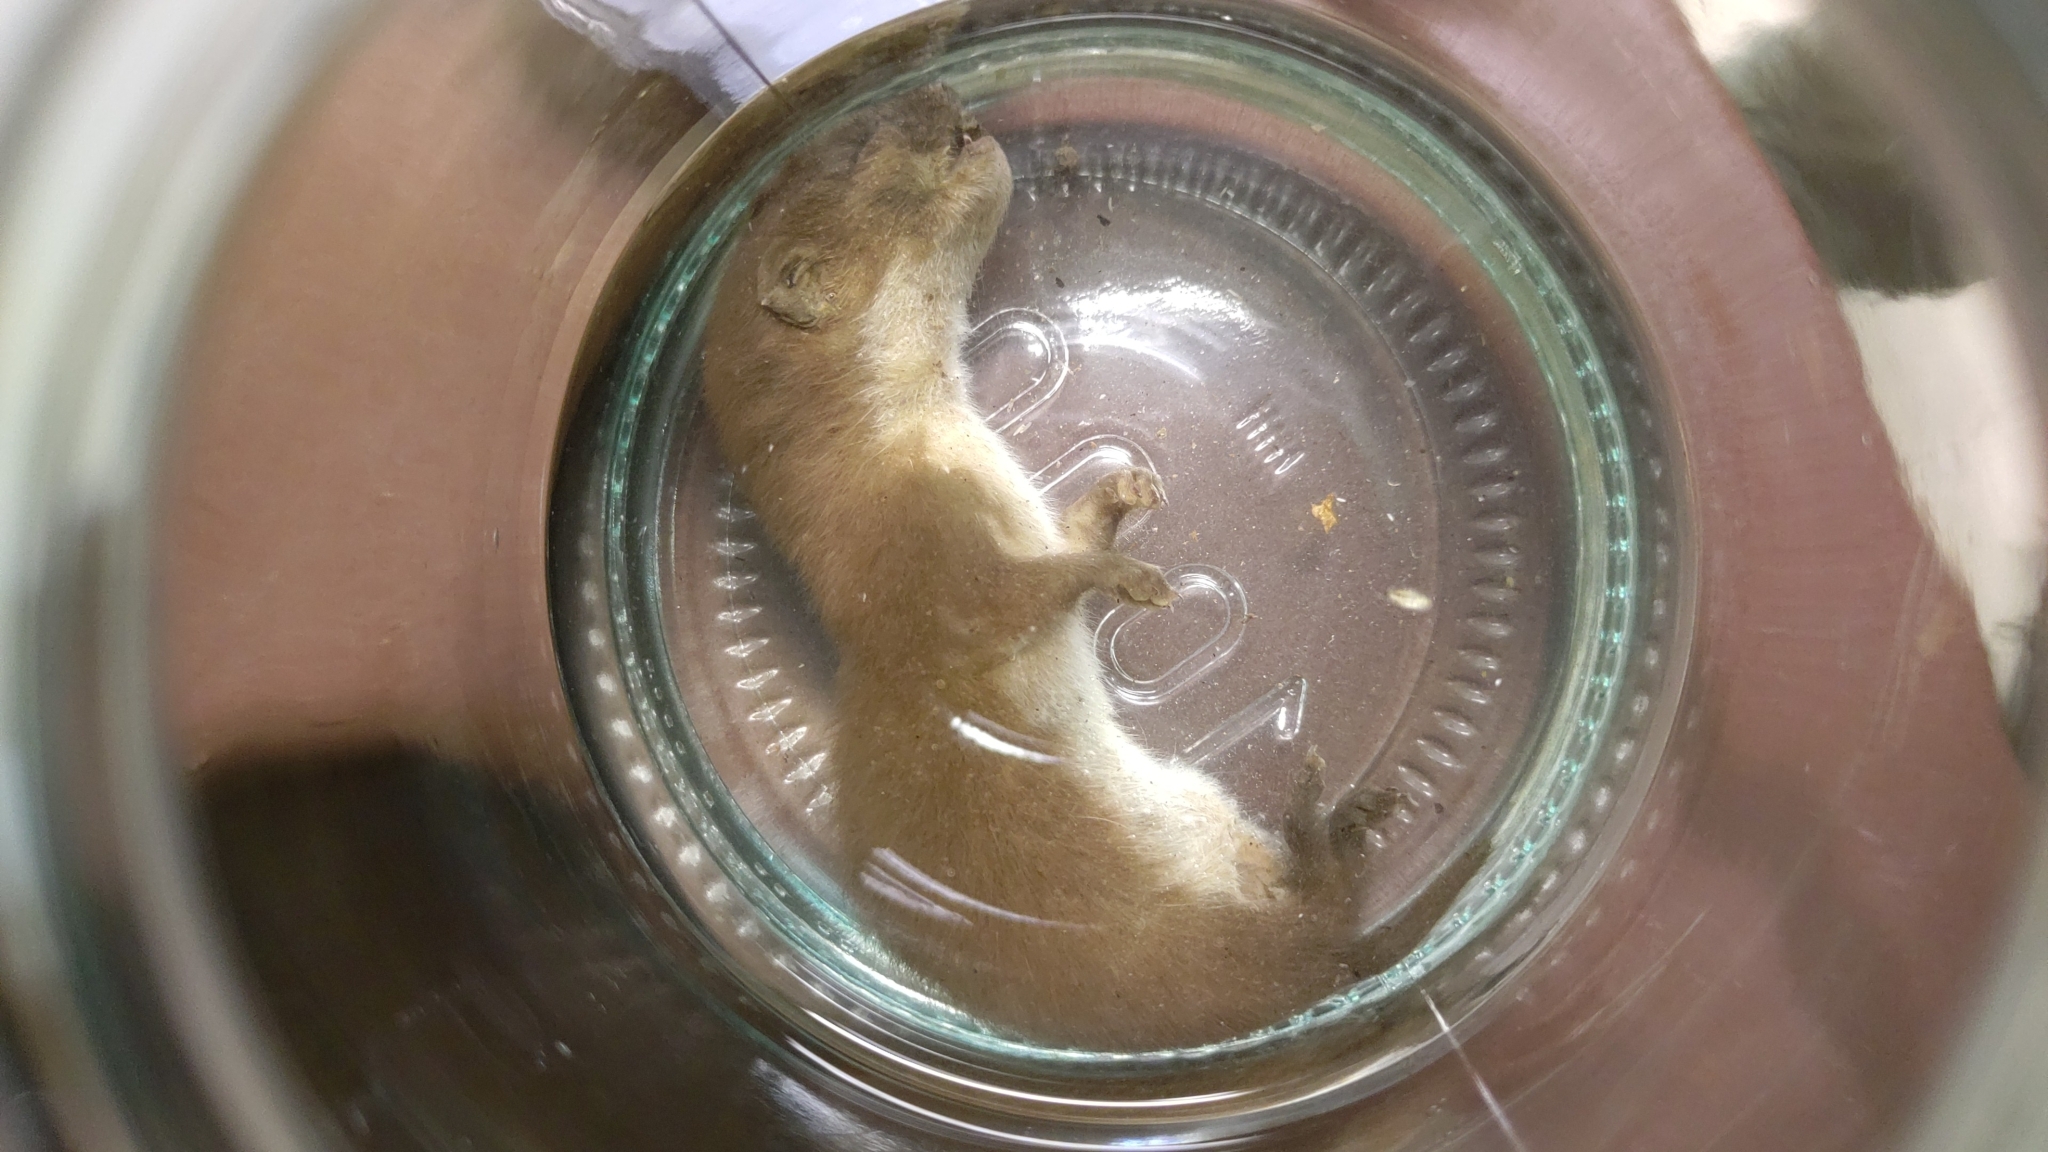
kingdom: Animalia
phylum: Chordata
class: Mammalia
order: Carnivora
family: Mustelidae
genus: Mustela
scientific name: Mustela nivalis
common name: Least weasel
